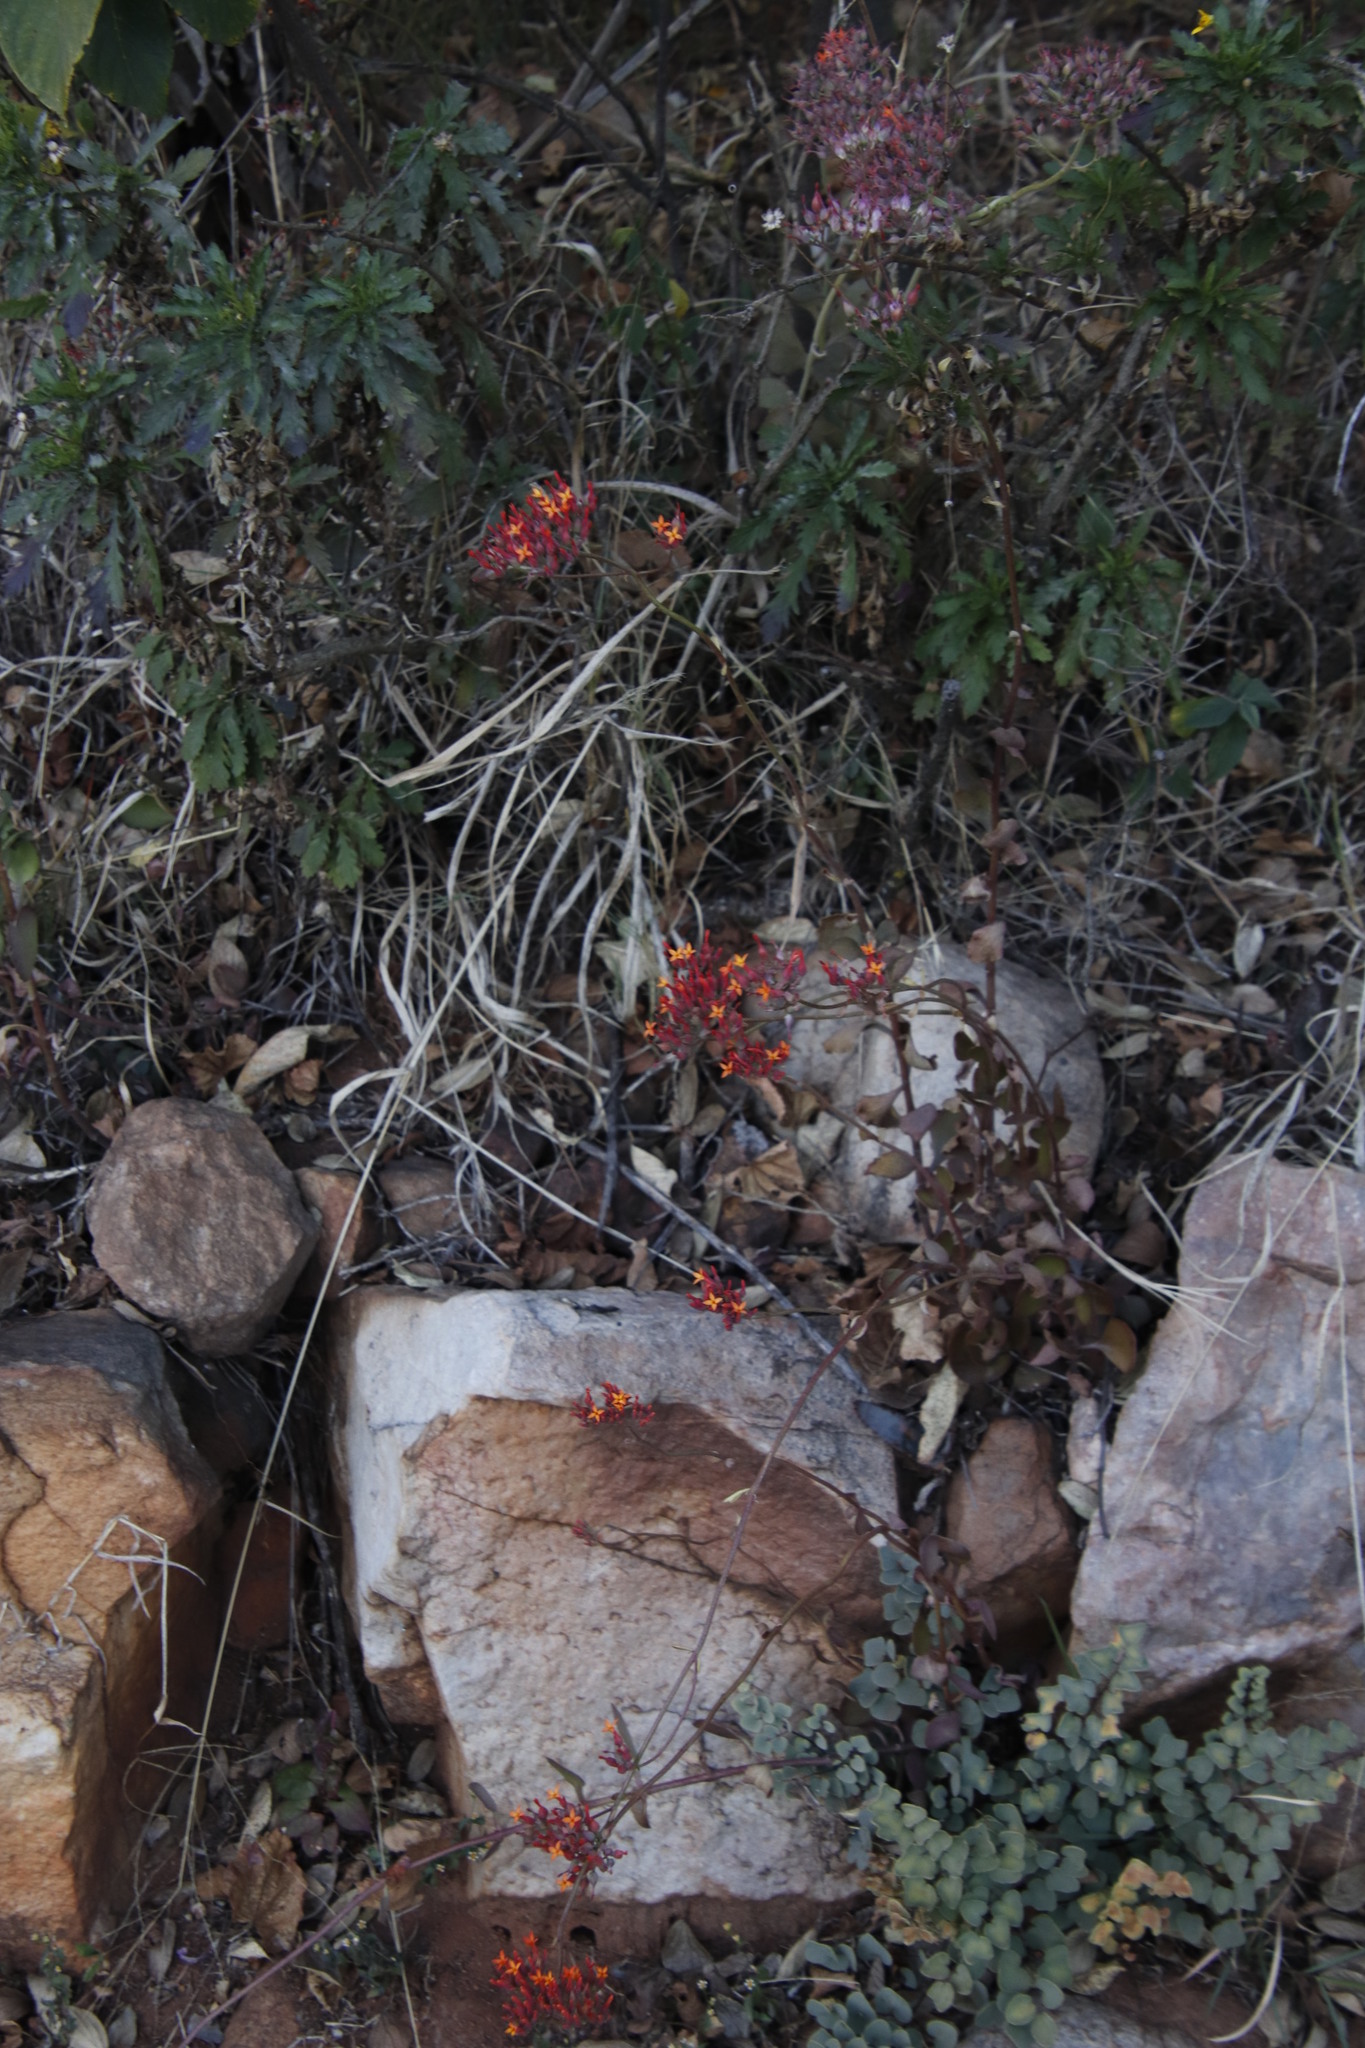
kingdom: Plantae
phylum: Tracheophyta
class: Magnoliopsida
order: Saxifragales
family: Crassulaceae
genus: Kalanchoe
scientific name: Kalanchoe rotundifolia
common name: Common kalanchoe
